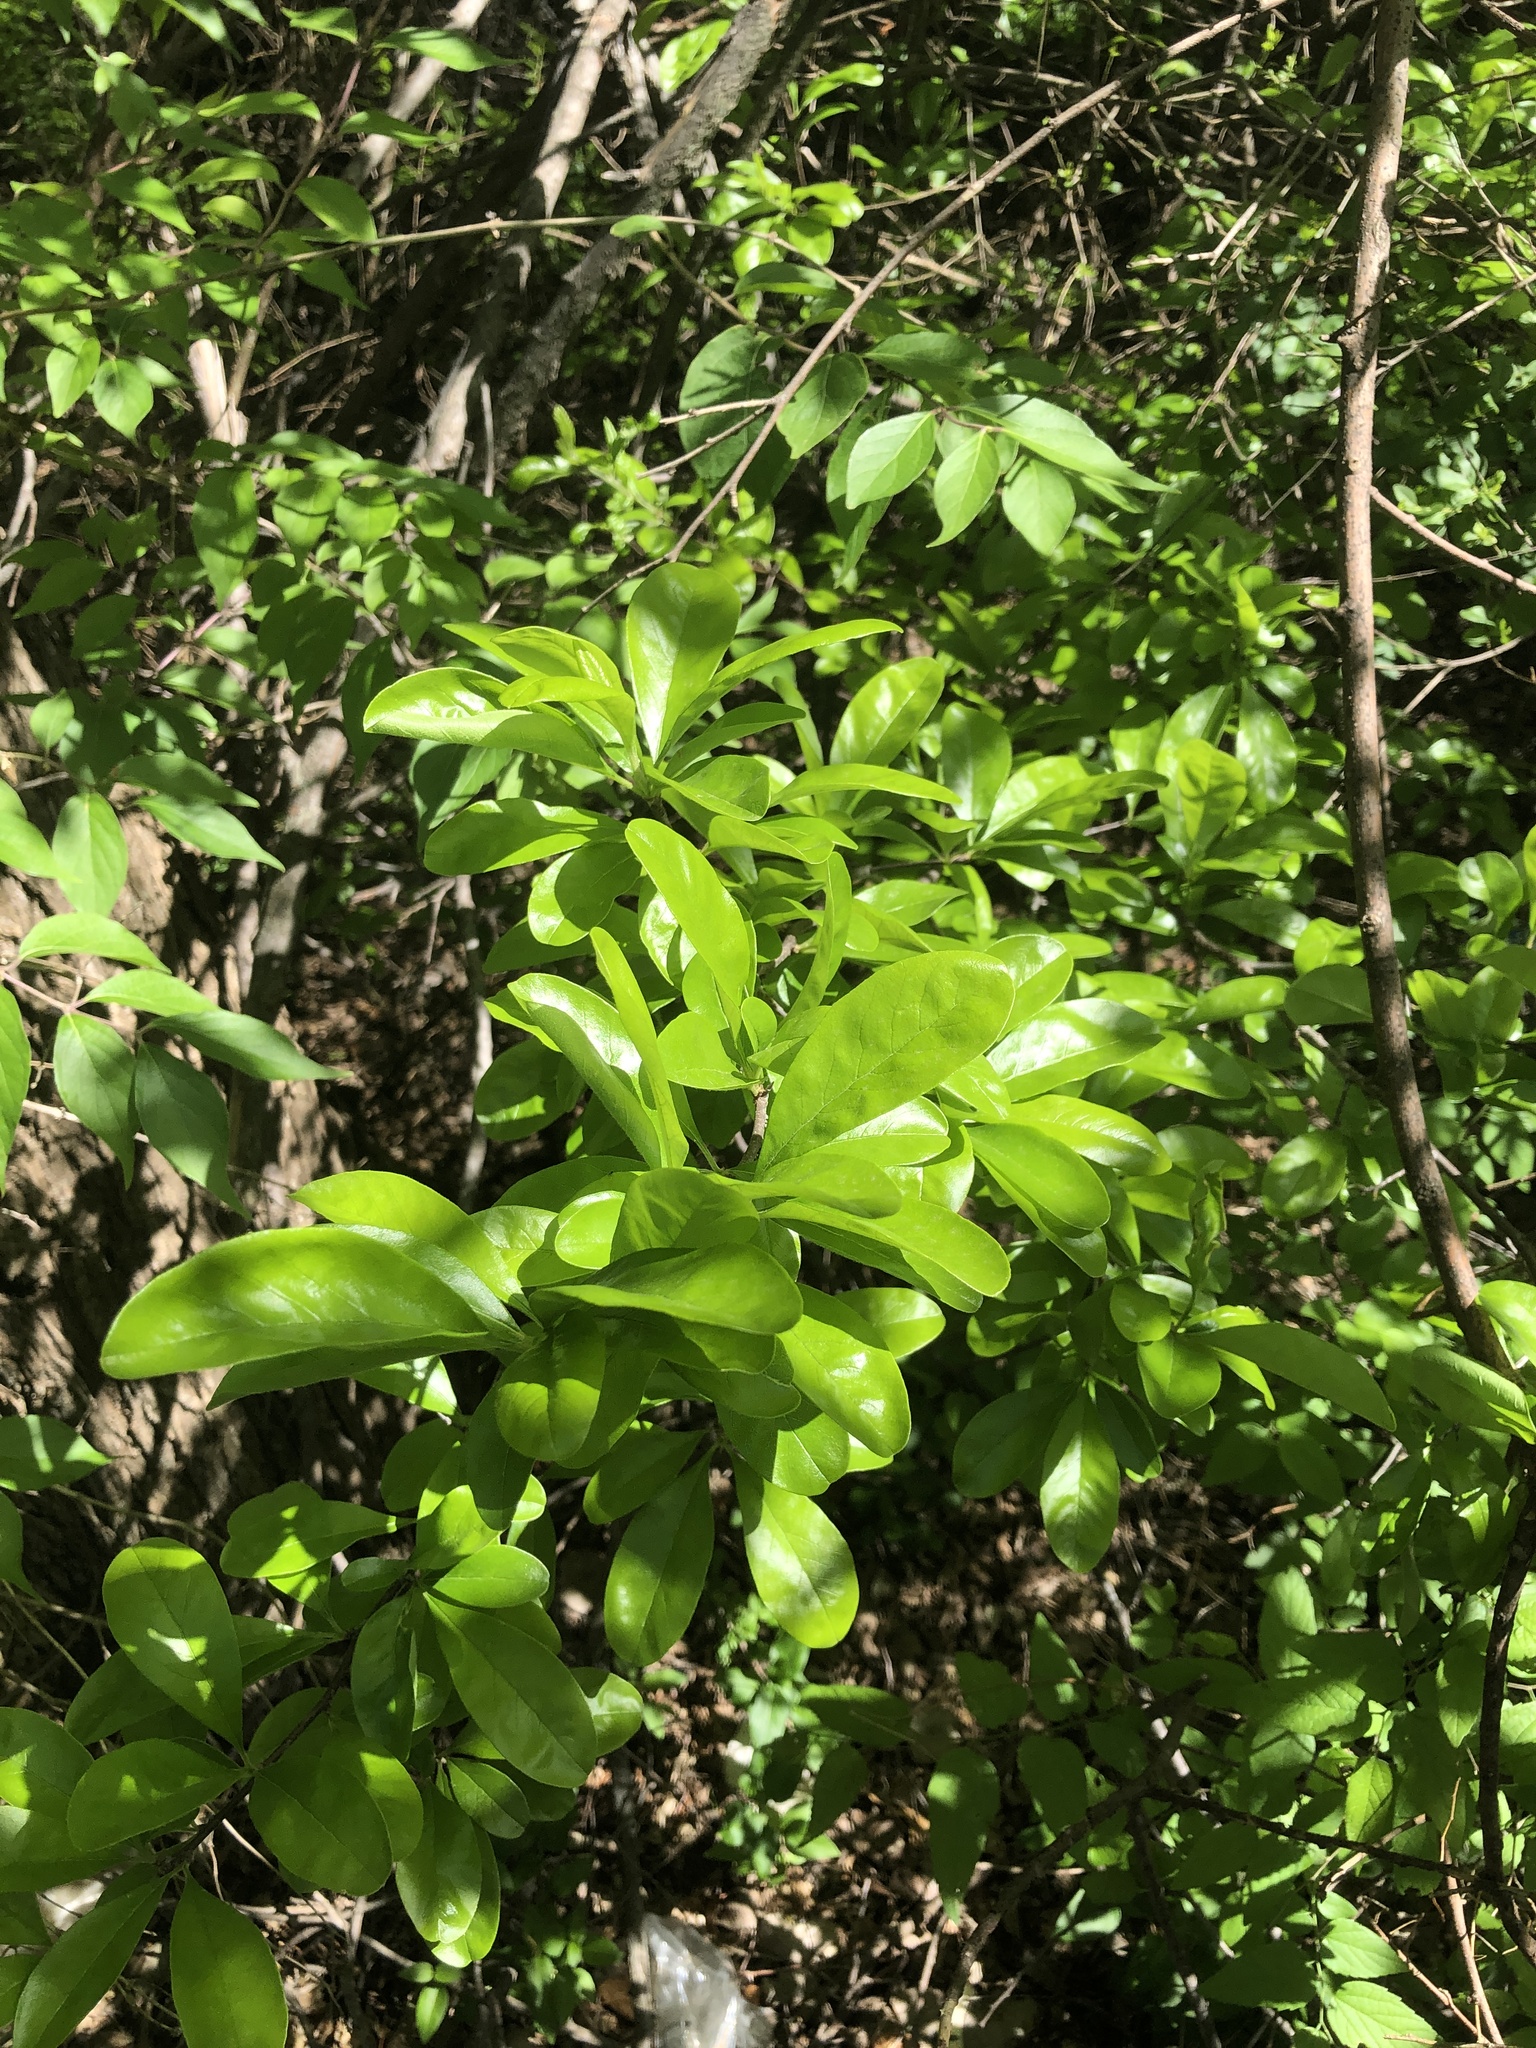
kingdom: Plantae
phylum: Tracheophyta
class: Magnoliopsida
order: Ericales
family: Sapotaceae
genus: Sideroxylon
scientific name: Sideroxylon lanuginosum
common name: Chittamwood
